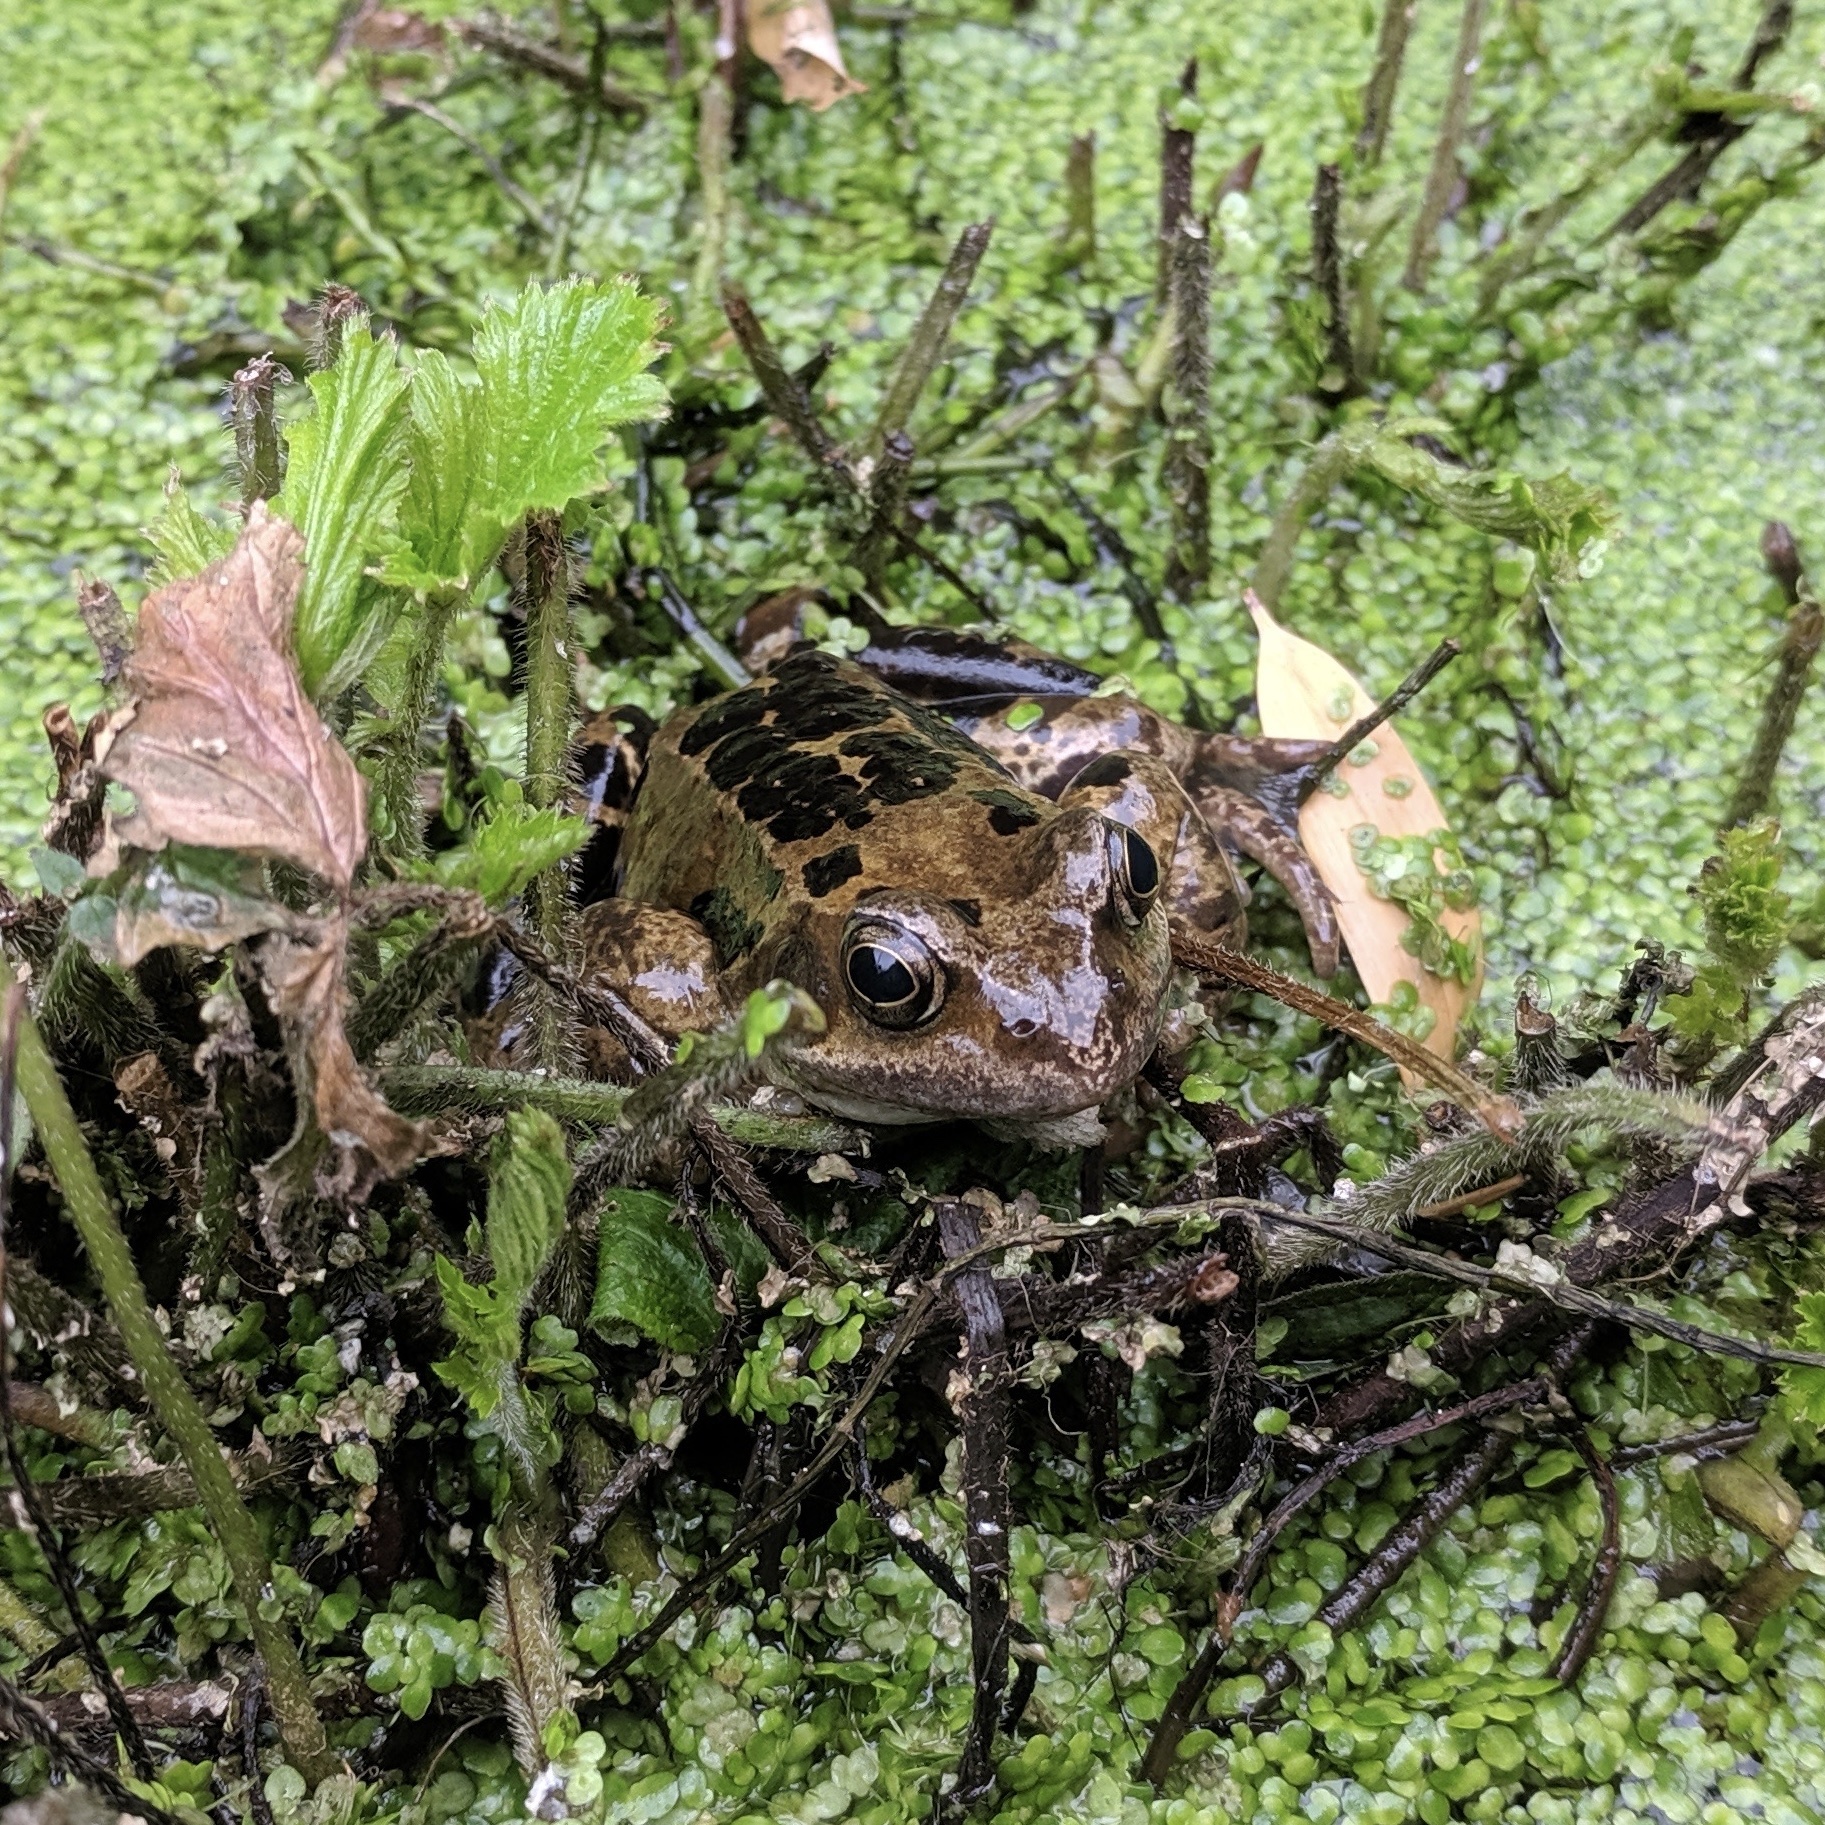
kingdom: Animalia
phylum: Chordata
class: Amphibia
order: Anura
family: Ranidae
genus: Rana
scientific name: Rana temporaria
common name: Common frog
